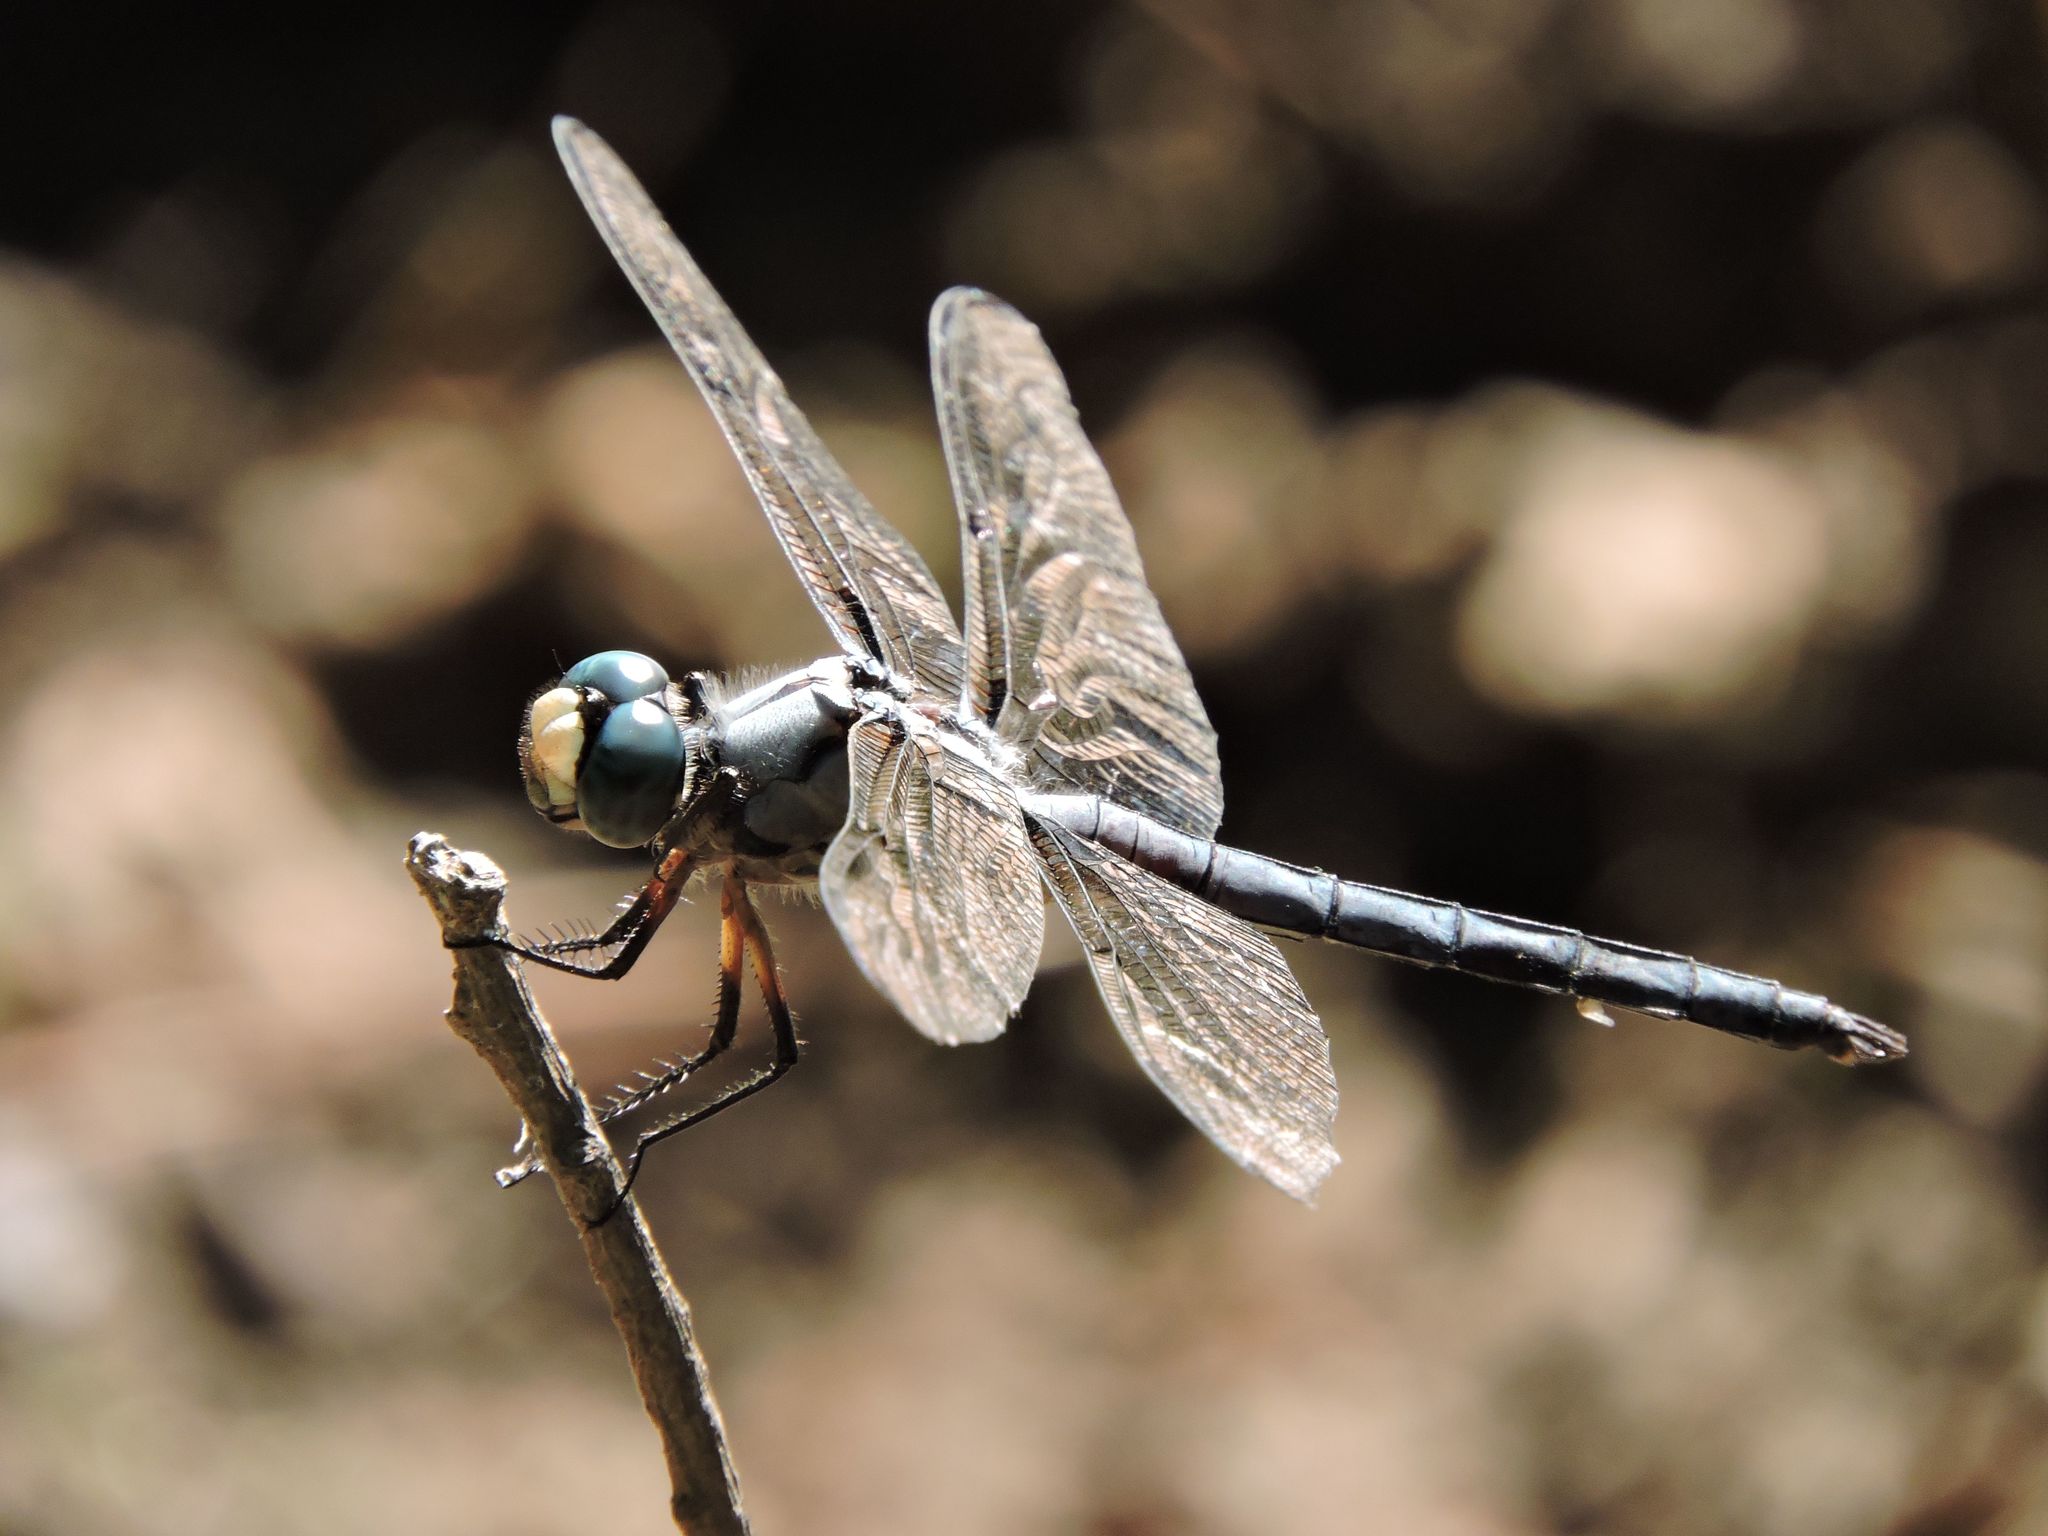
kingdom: Animalia
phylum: Arthropoda
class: Insecta
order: Odonata
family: Libellulidae
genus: Libellula
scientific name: Libellula vibrans
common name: Great blue skimmer
